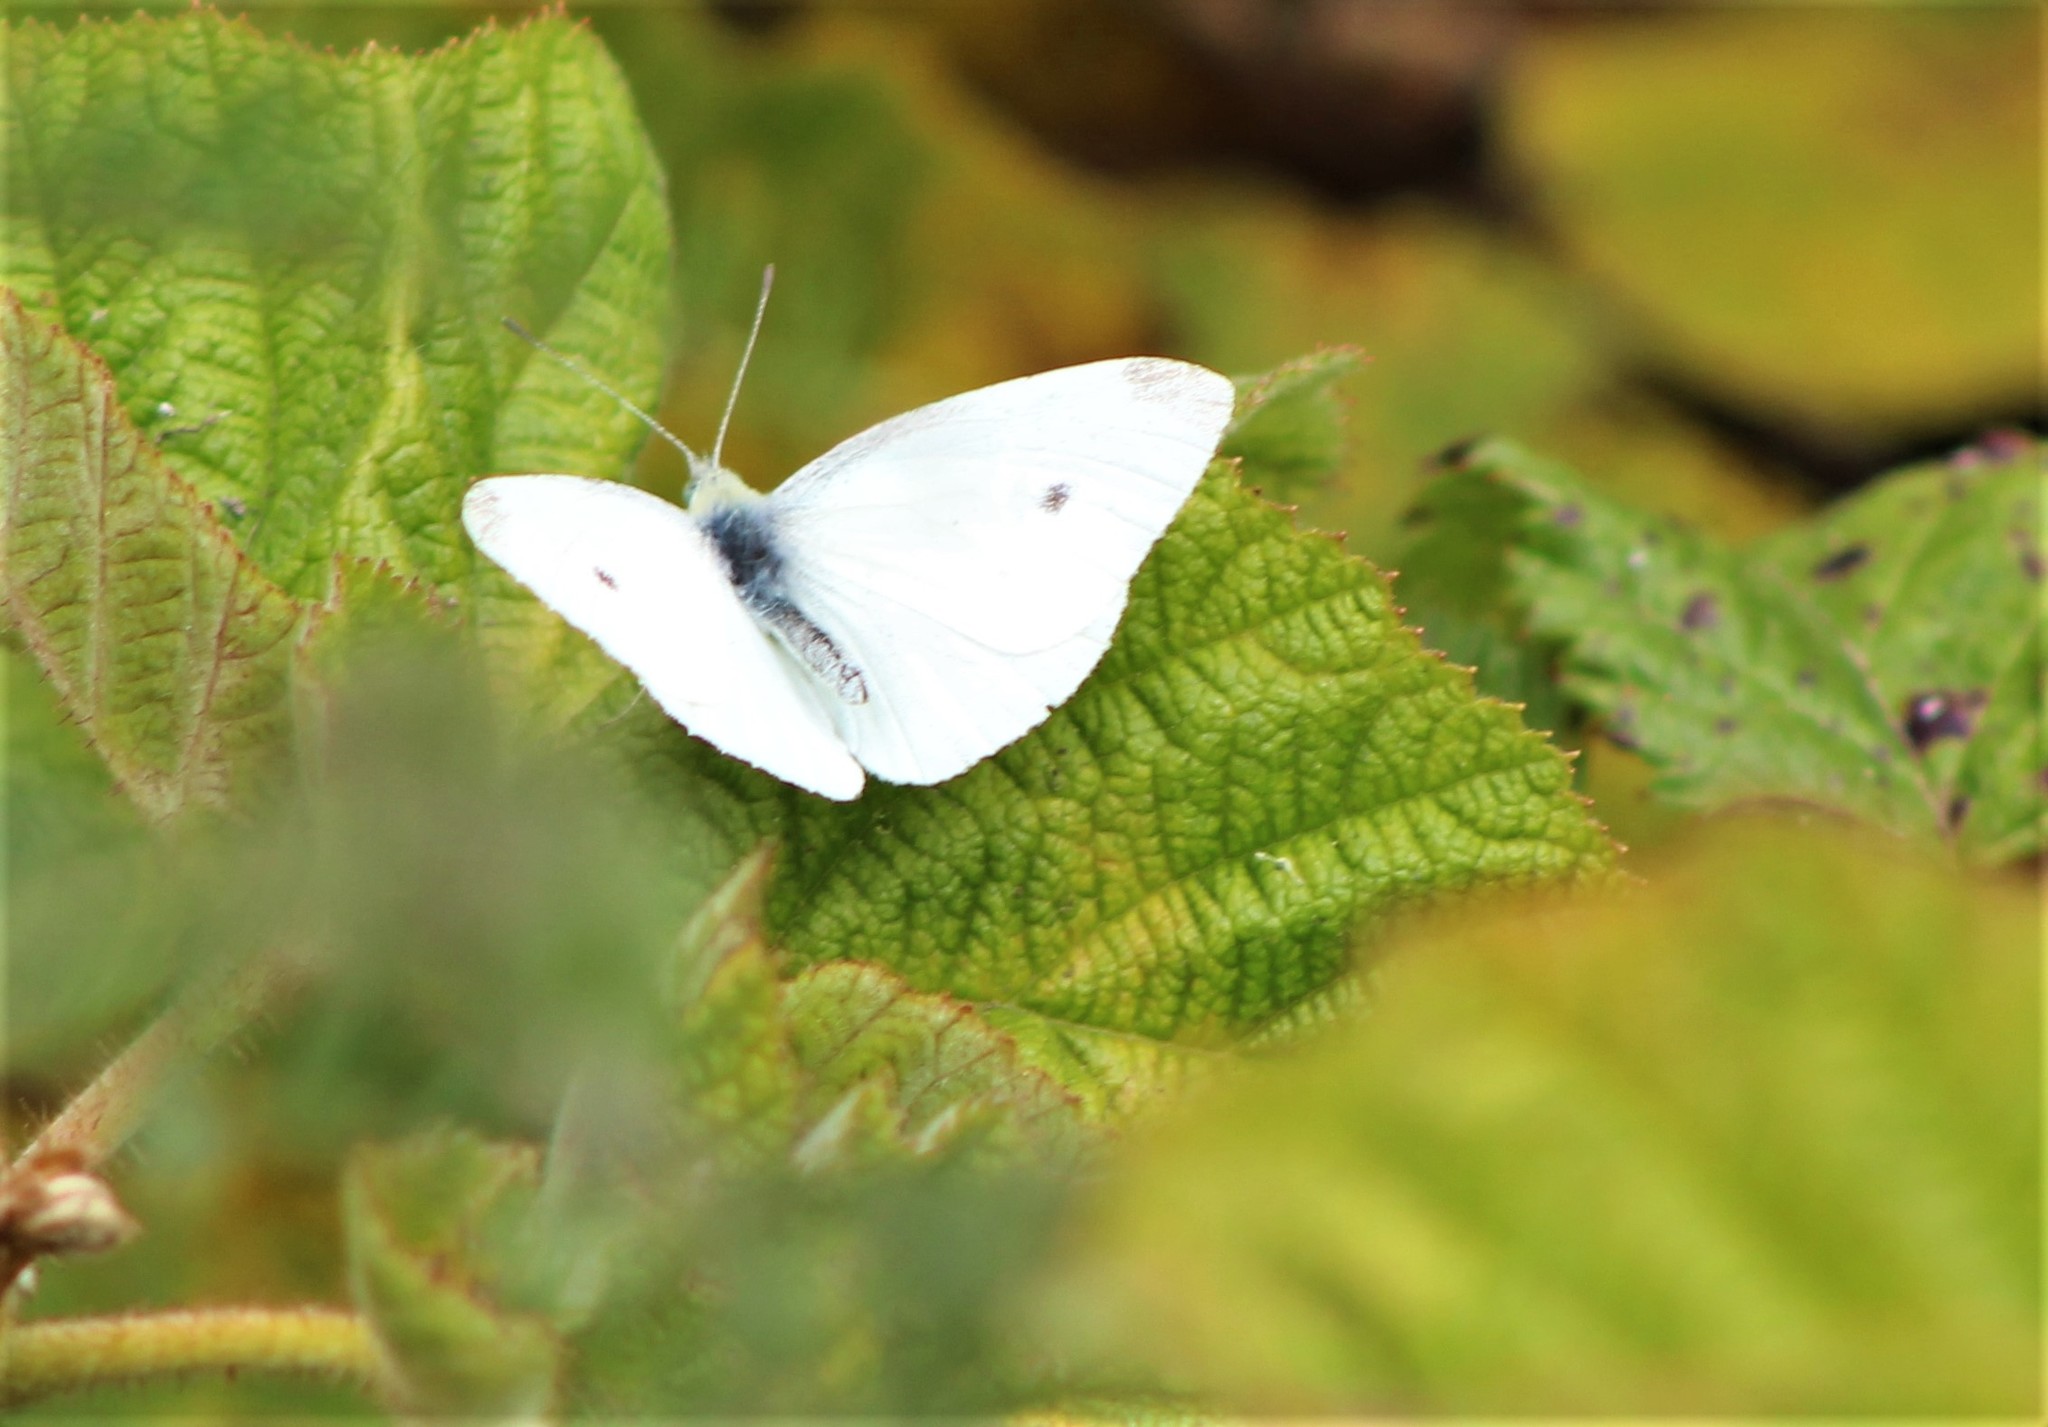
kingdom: Animalia
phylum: Arthropoda
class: Insecta
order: Lepidoptera
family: Pieridae
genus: Pieris
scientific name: Pieris rapae
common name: Small white
